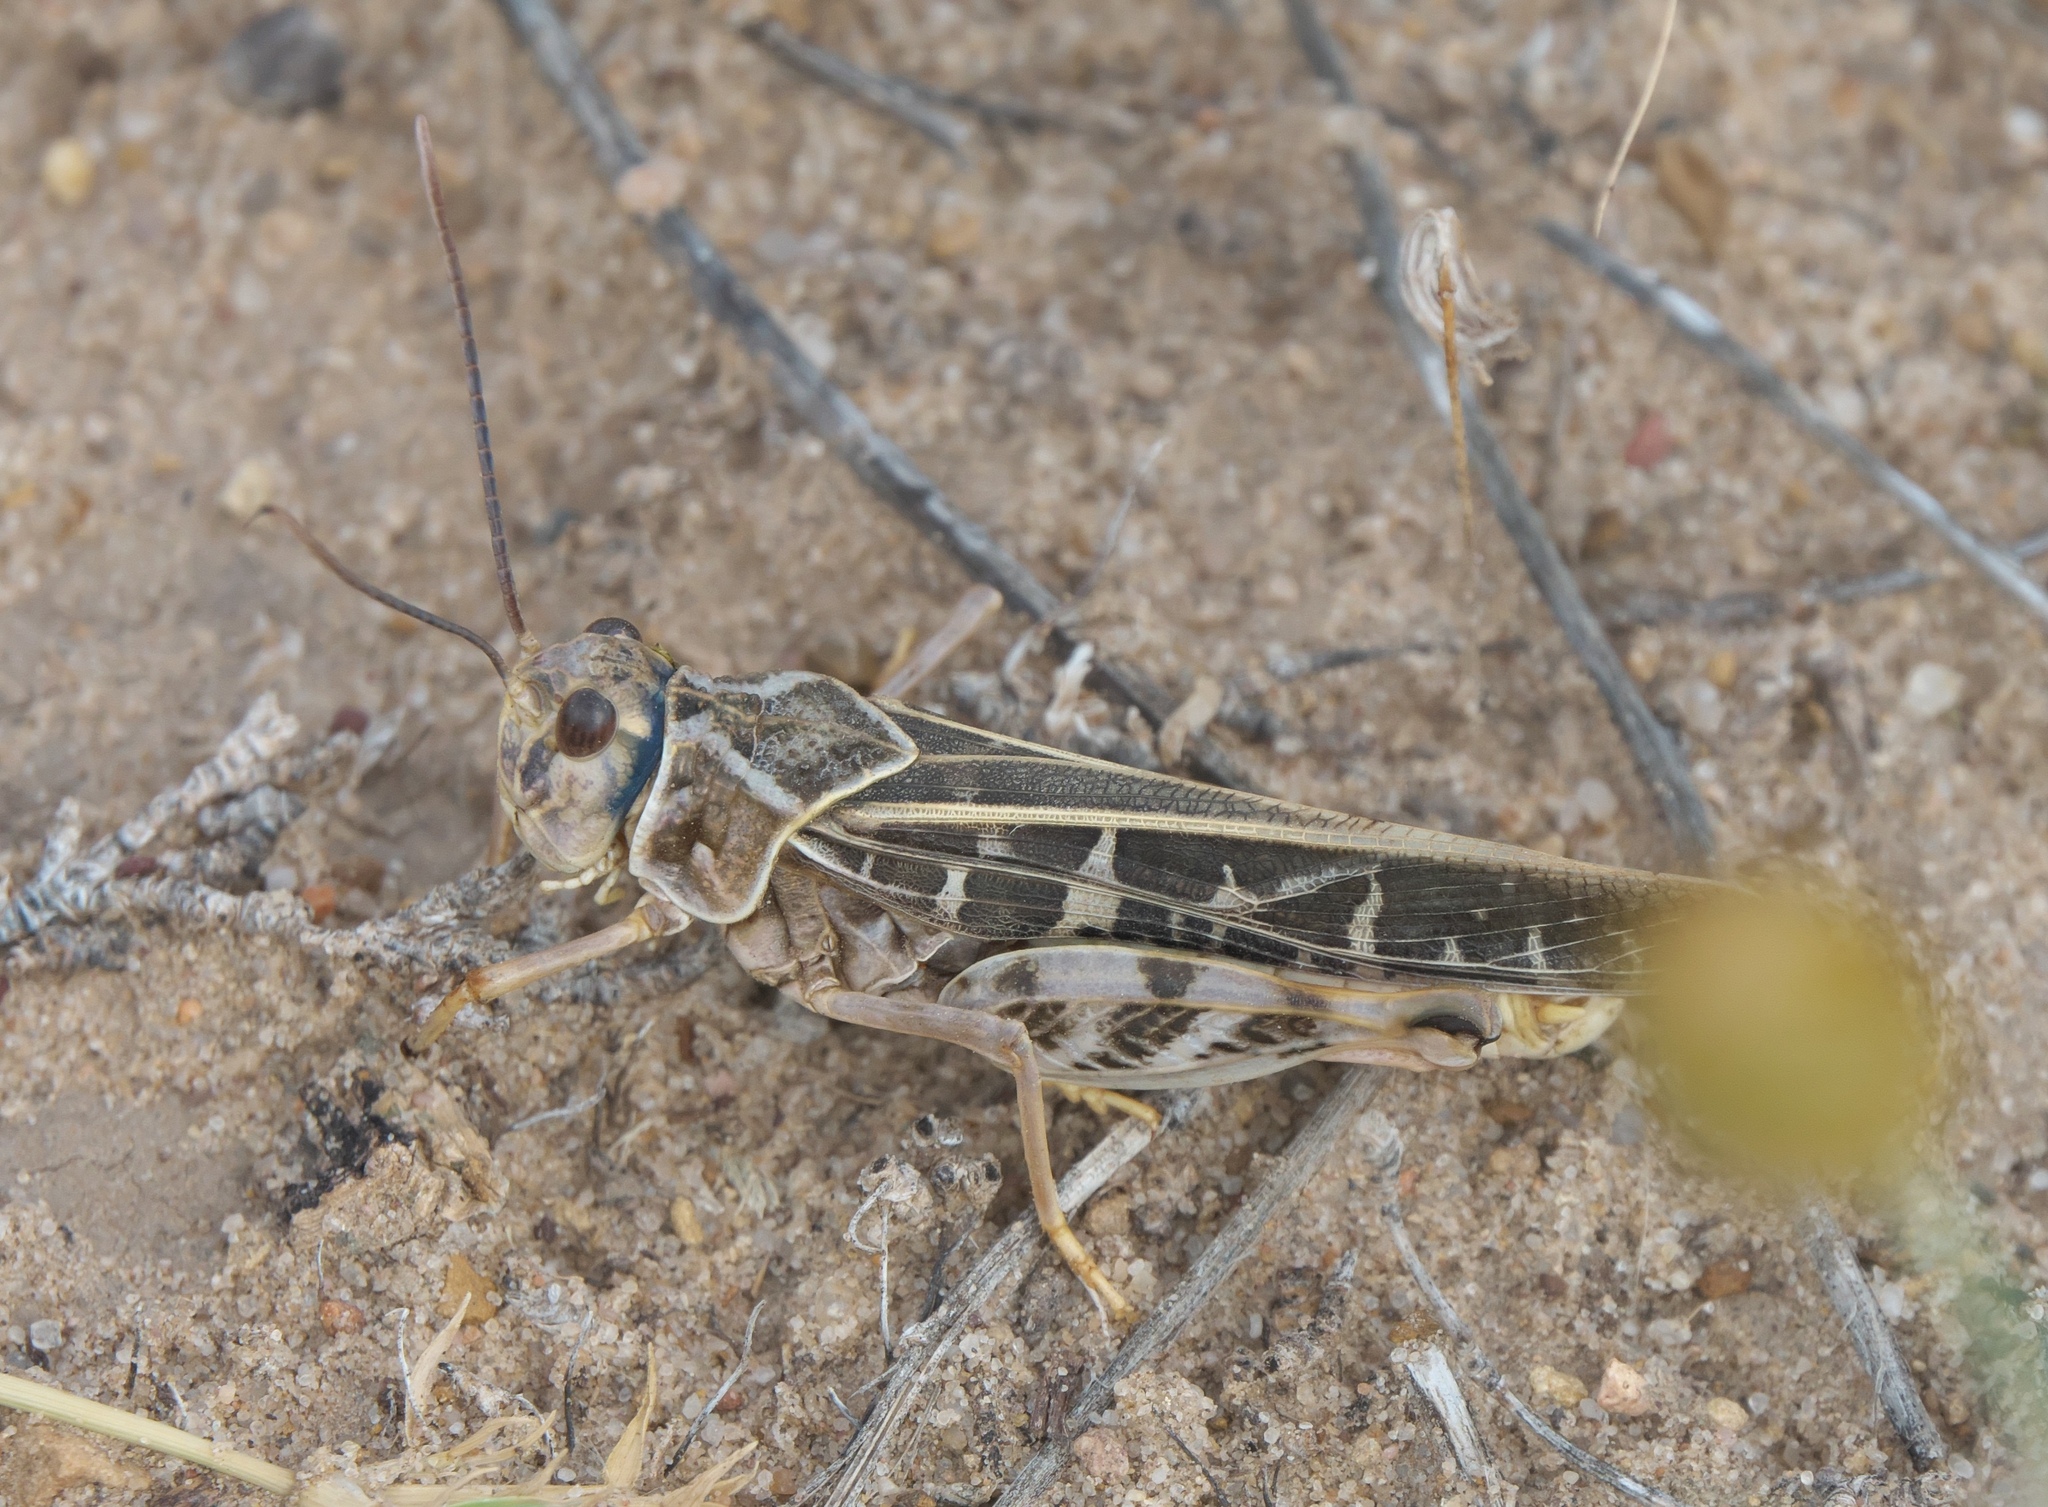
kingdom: Animalia
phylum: Arthropoda
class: Insecta
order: Orthoptera
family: Acrididae
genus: Xanthippus
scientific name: Xanthippus corallipes
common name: Redshanked grasshopper
